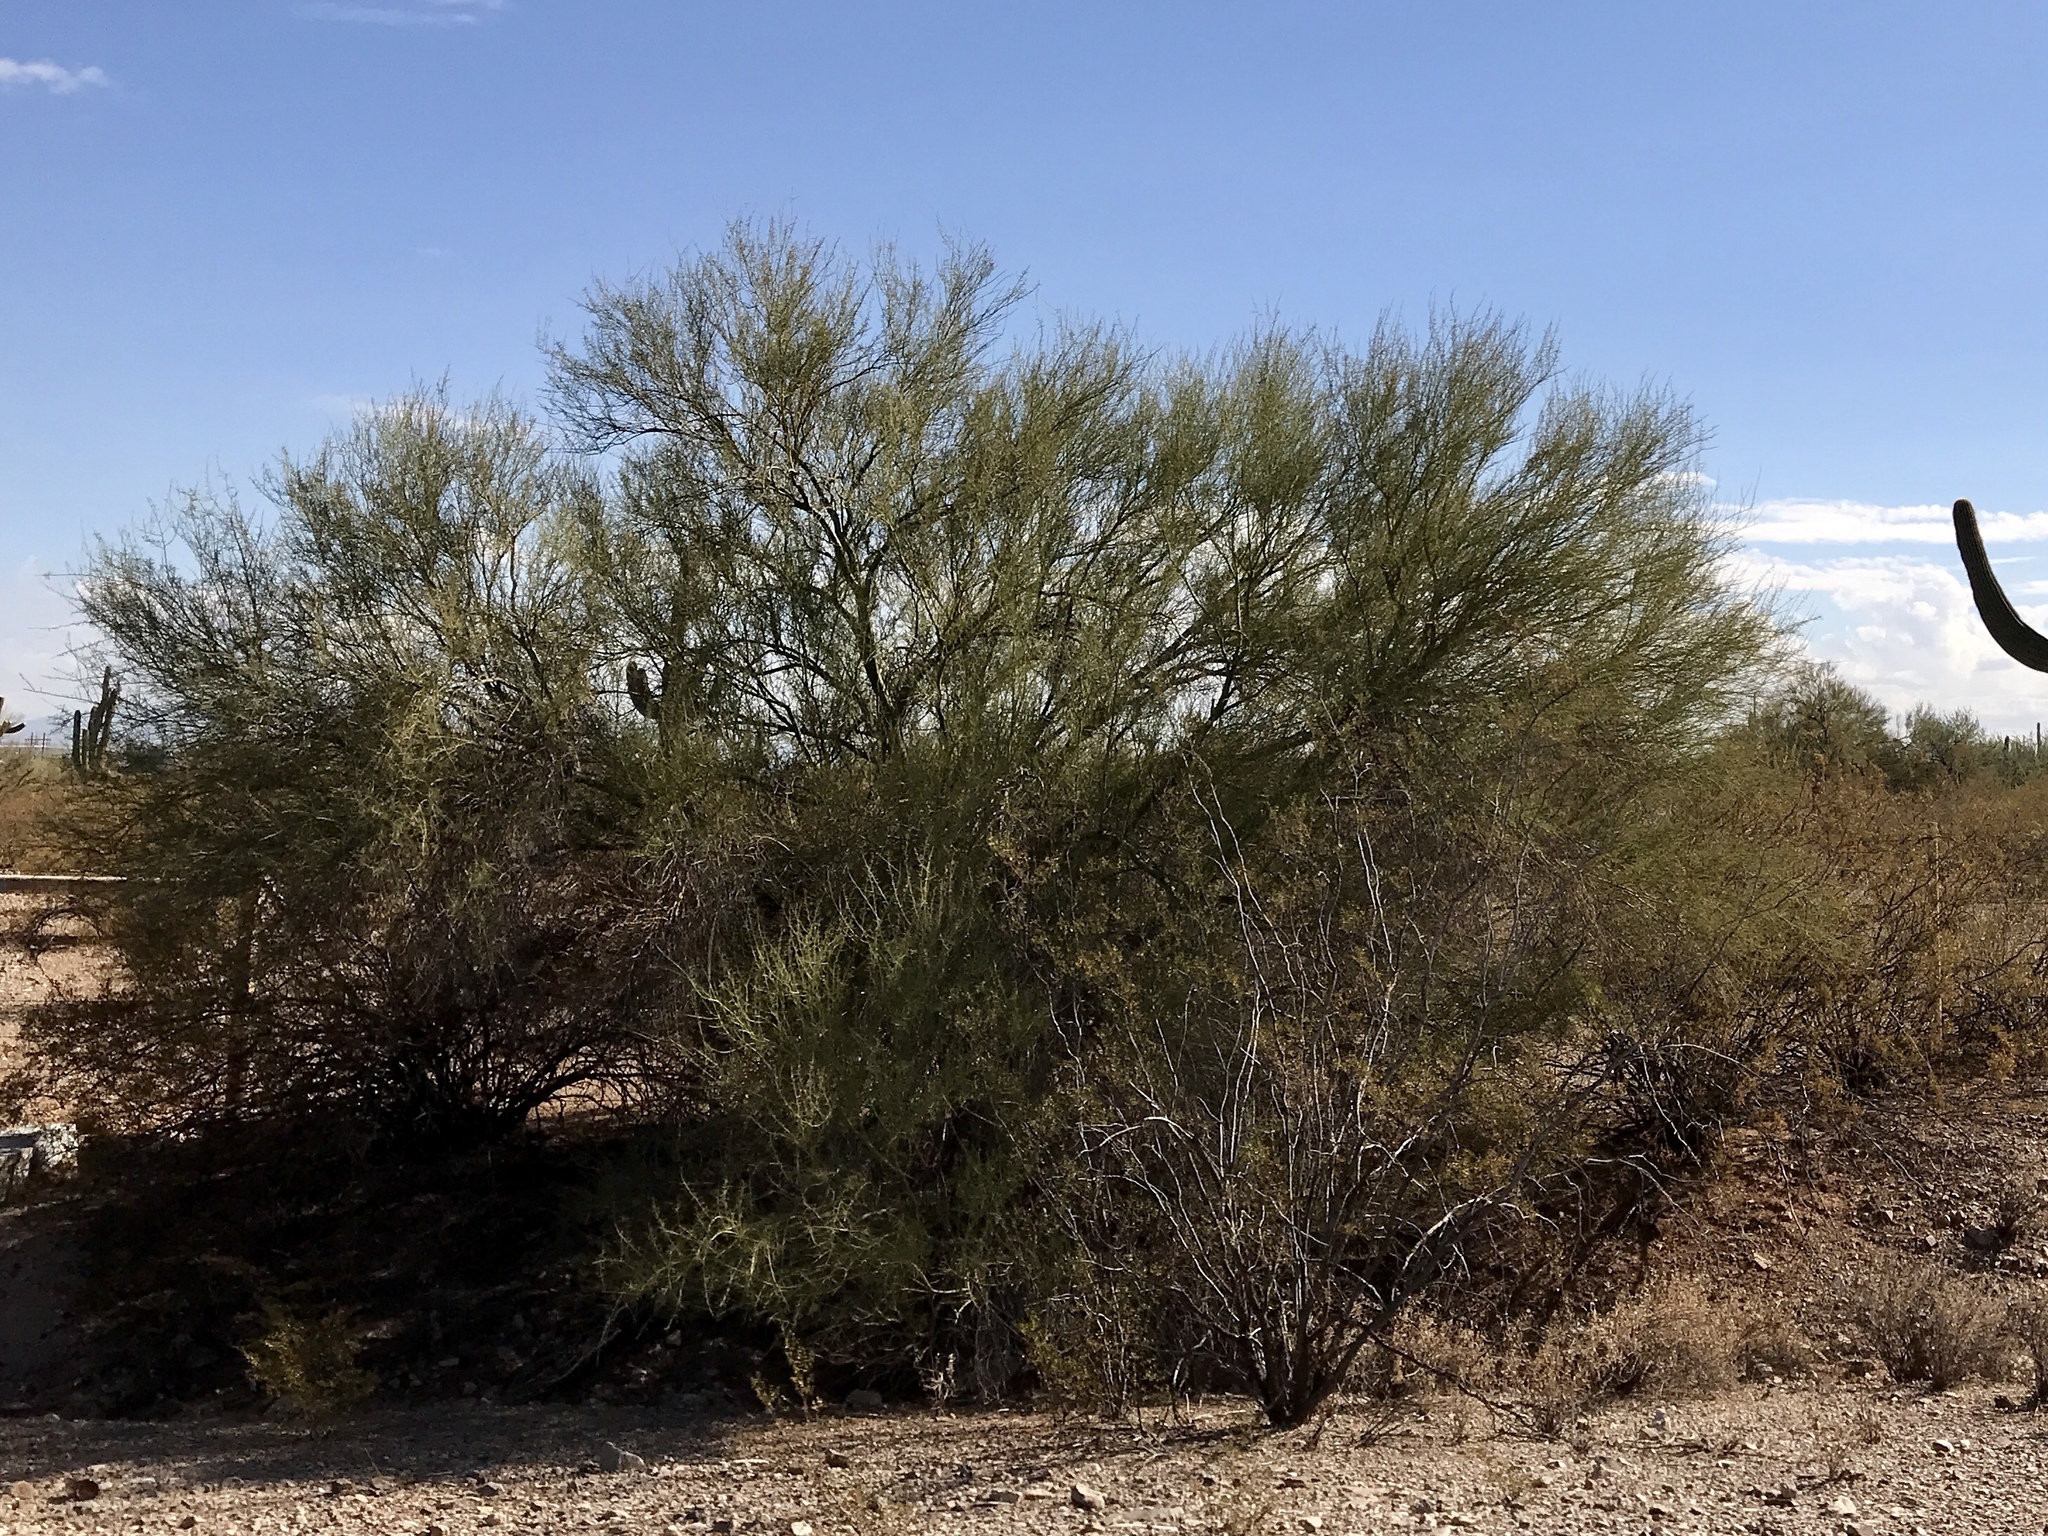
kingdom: Plantae
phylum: Tracheophyta
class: Magnoliopsida
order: Fabales
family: Fabaceae
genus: Parkinsonia
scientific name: Parkinsonia microphylla
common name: Yellow paloverde
